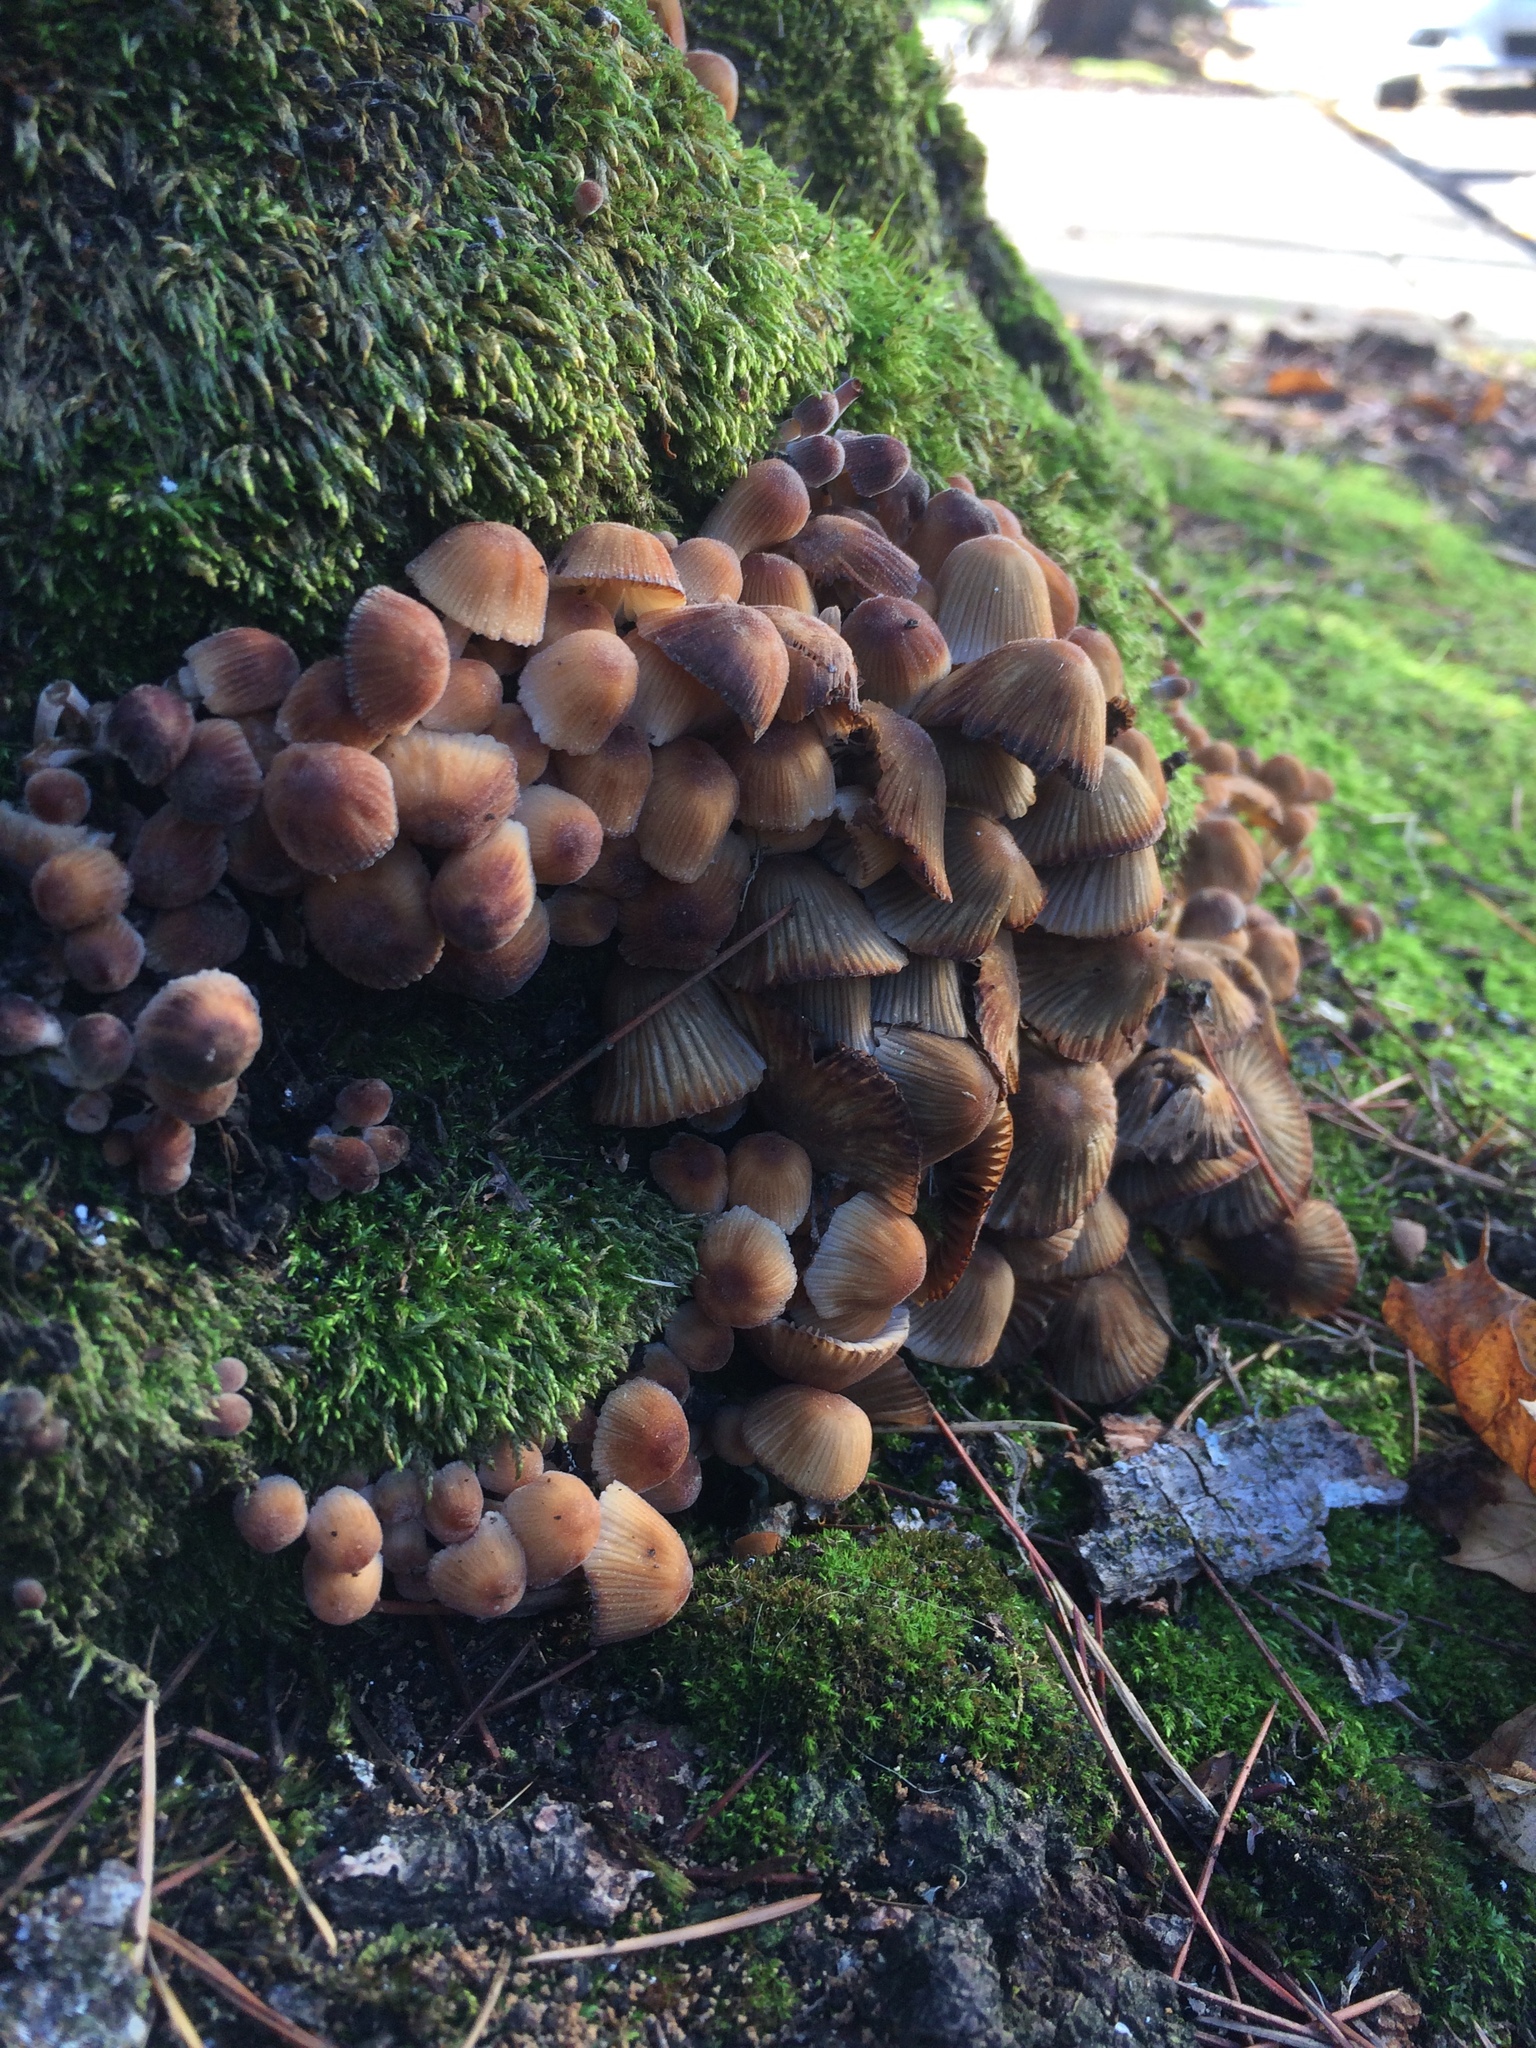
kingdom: Fungi
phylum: Basidiomycota
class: Agaricomycetes
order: Agaricales
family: Psathyrellaceae
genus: Coprinellus
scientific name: Coprinellus micaceus
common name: Glistening ink-cap
